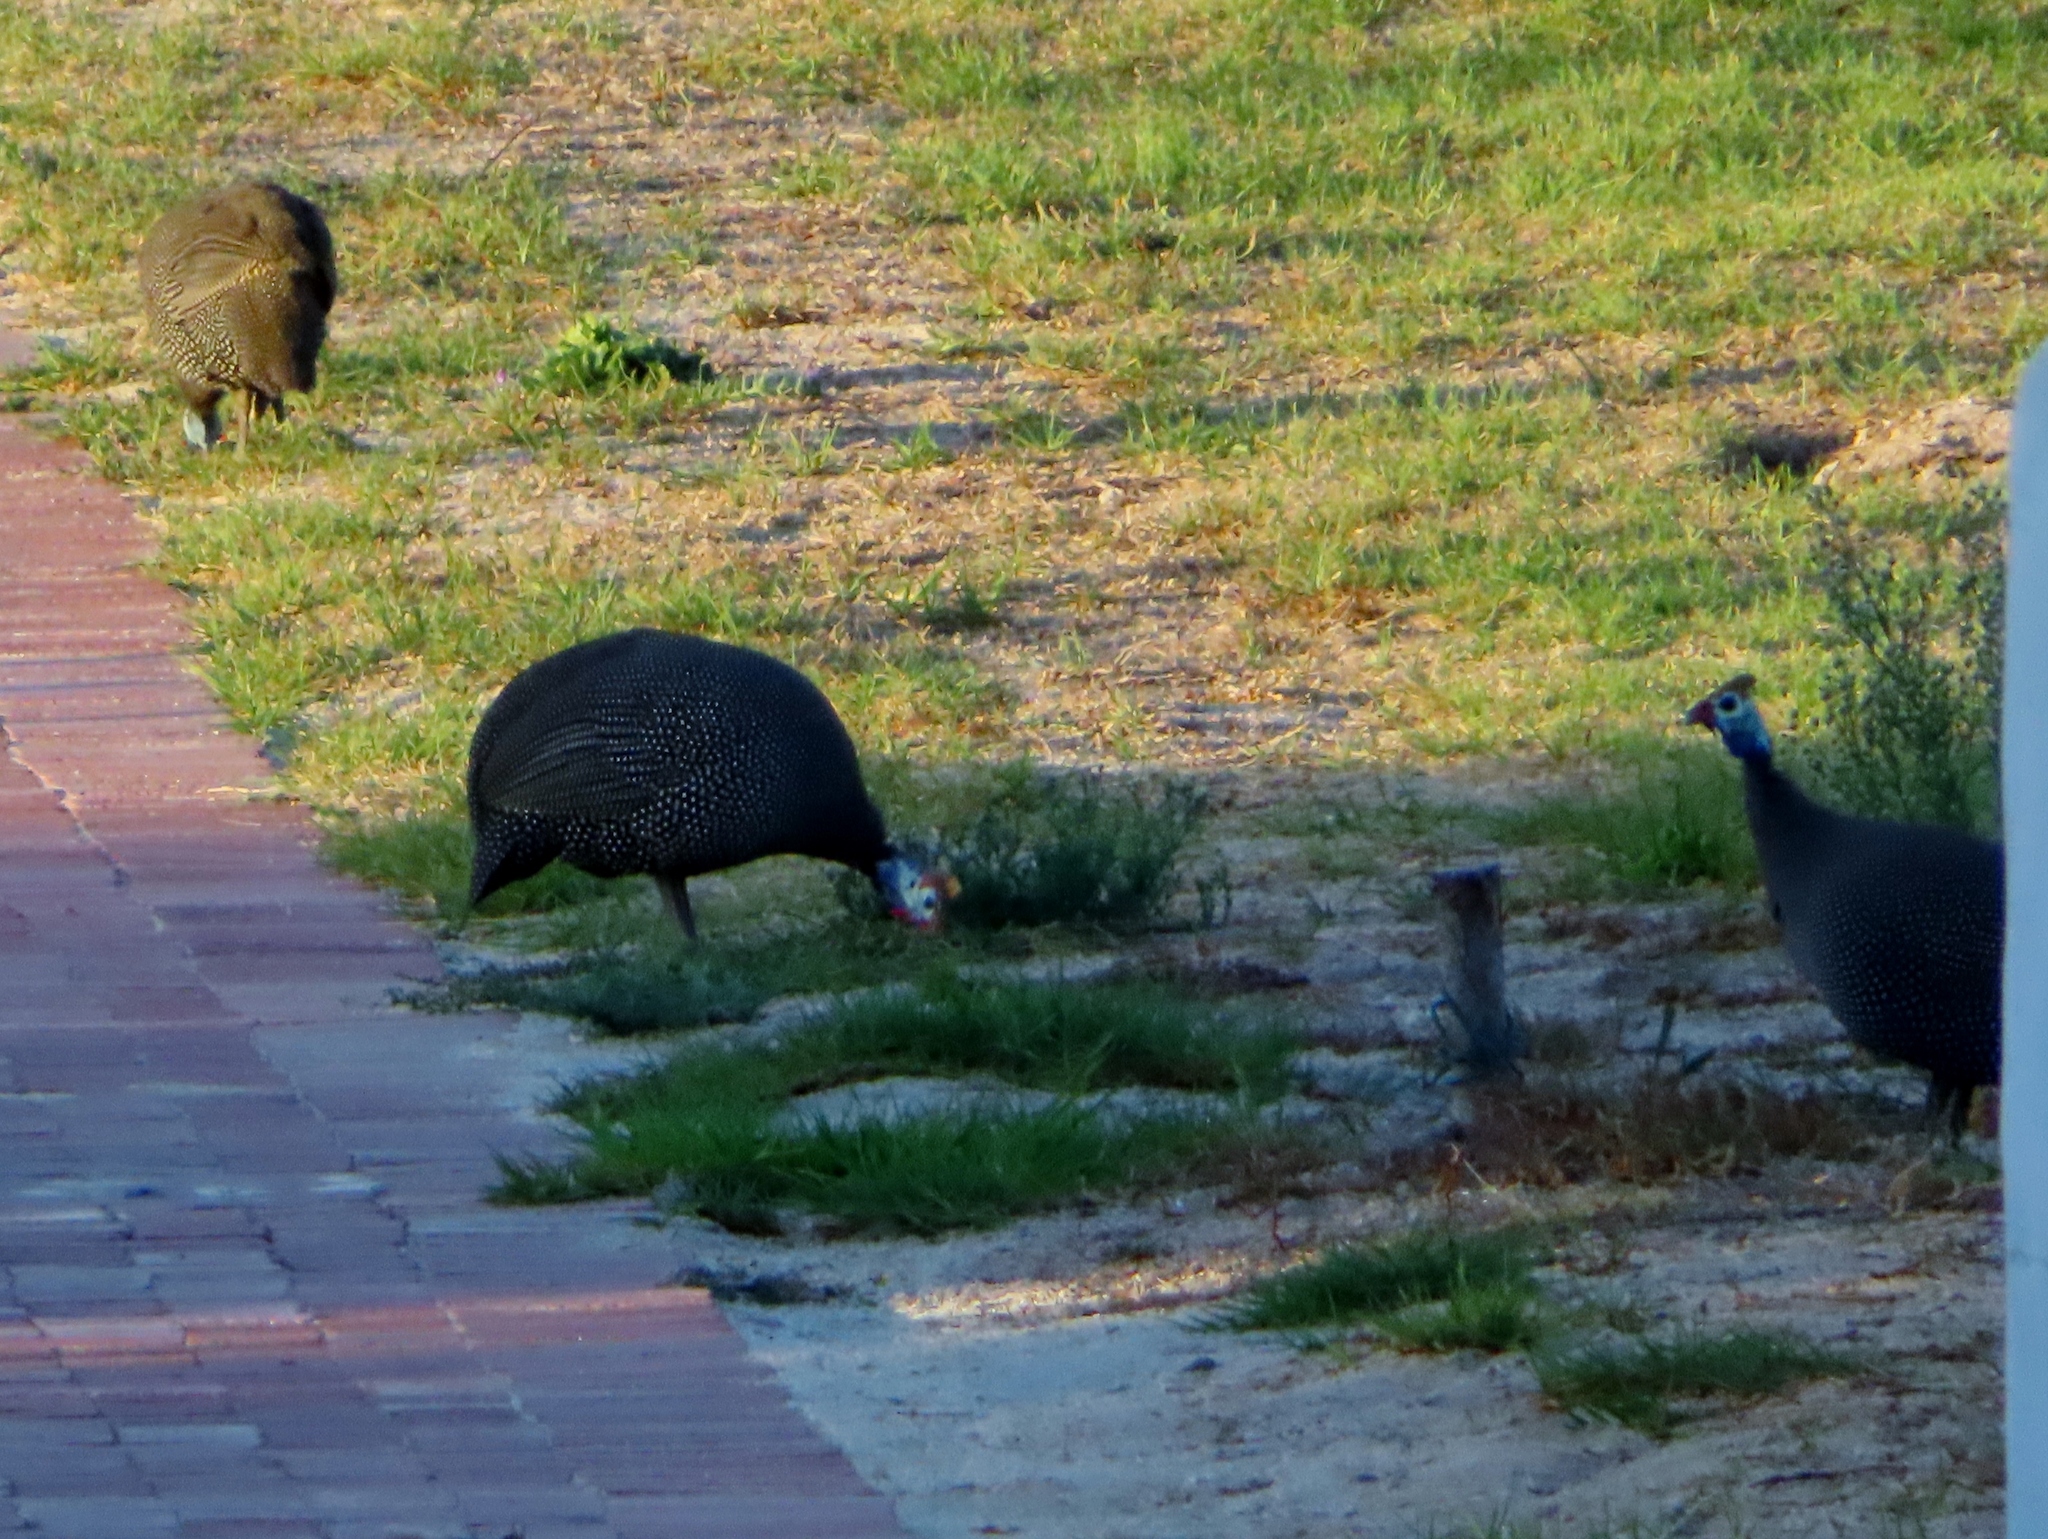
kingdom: Animalia
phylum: Chordata
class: Aves
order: Galliformes
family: Numididae
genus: Numida
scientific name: Numida meleagris
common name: Helmeted guineafowl
